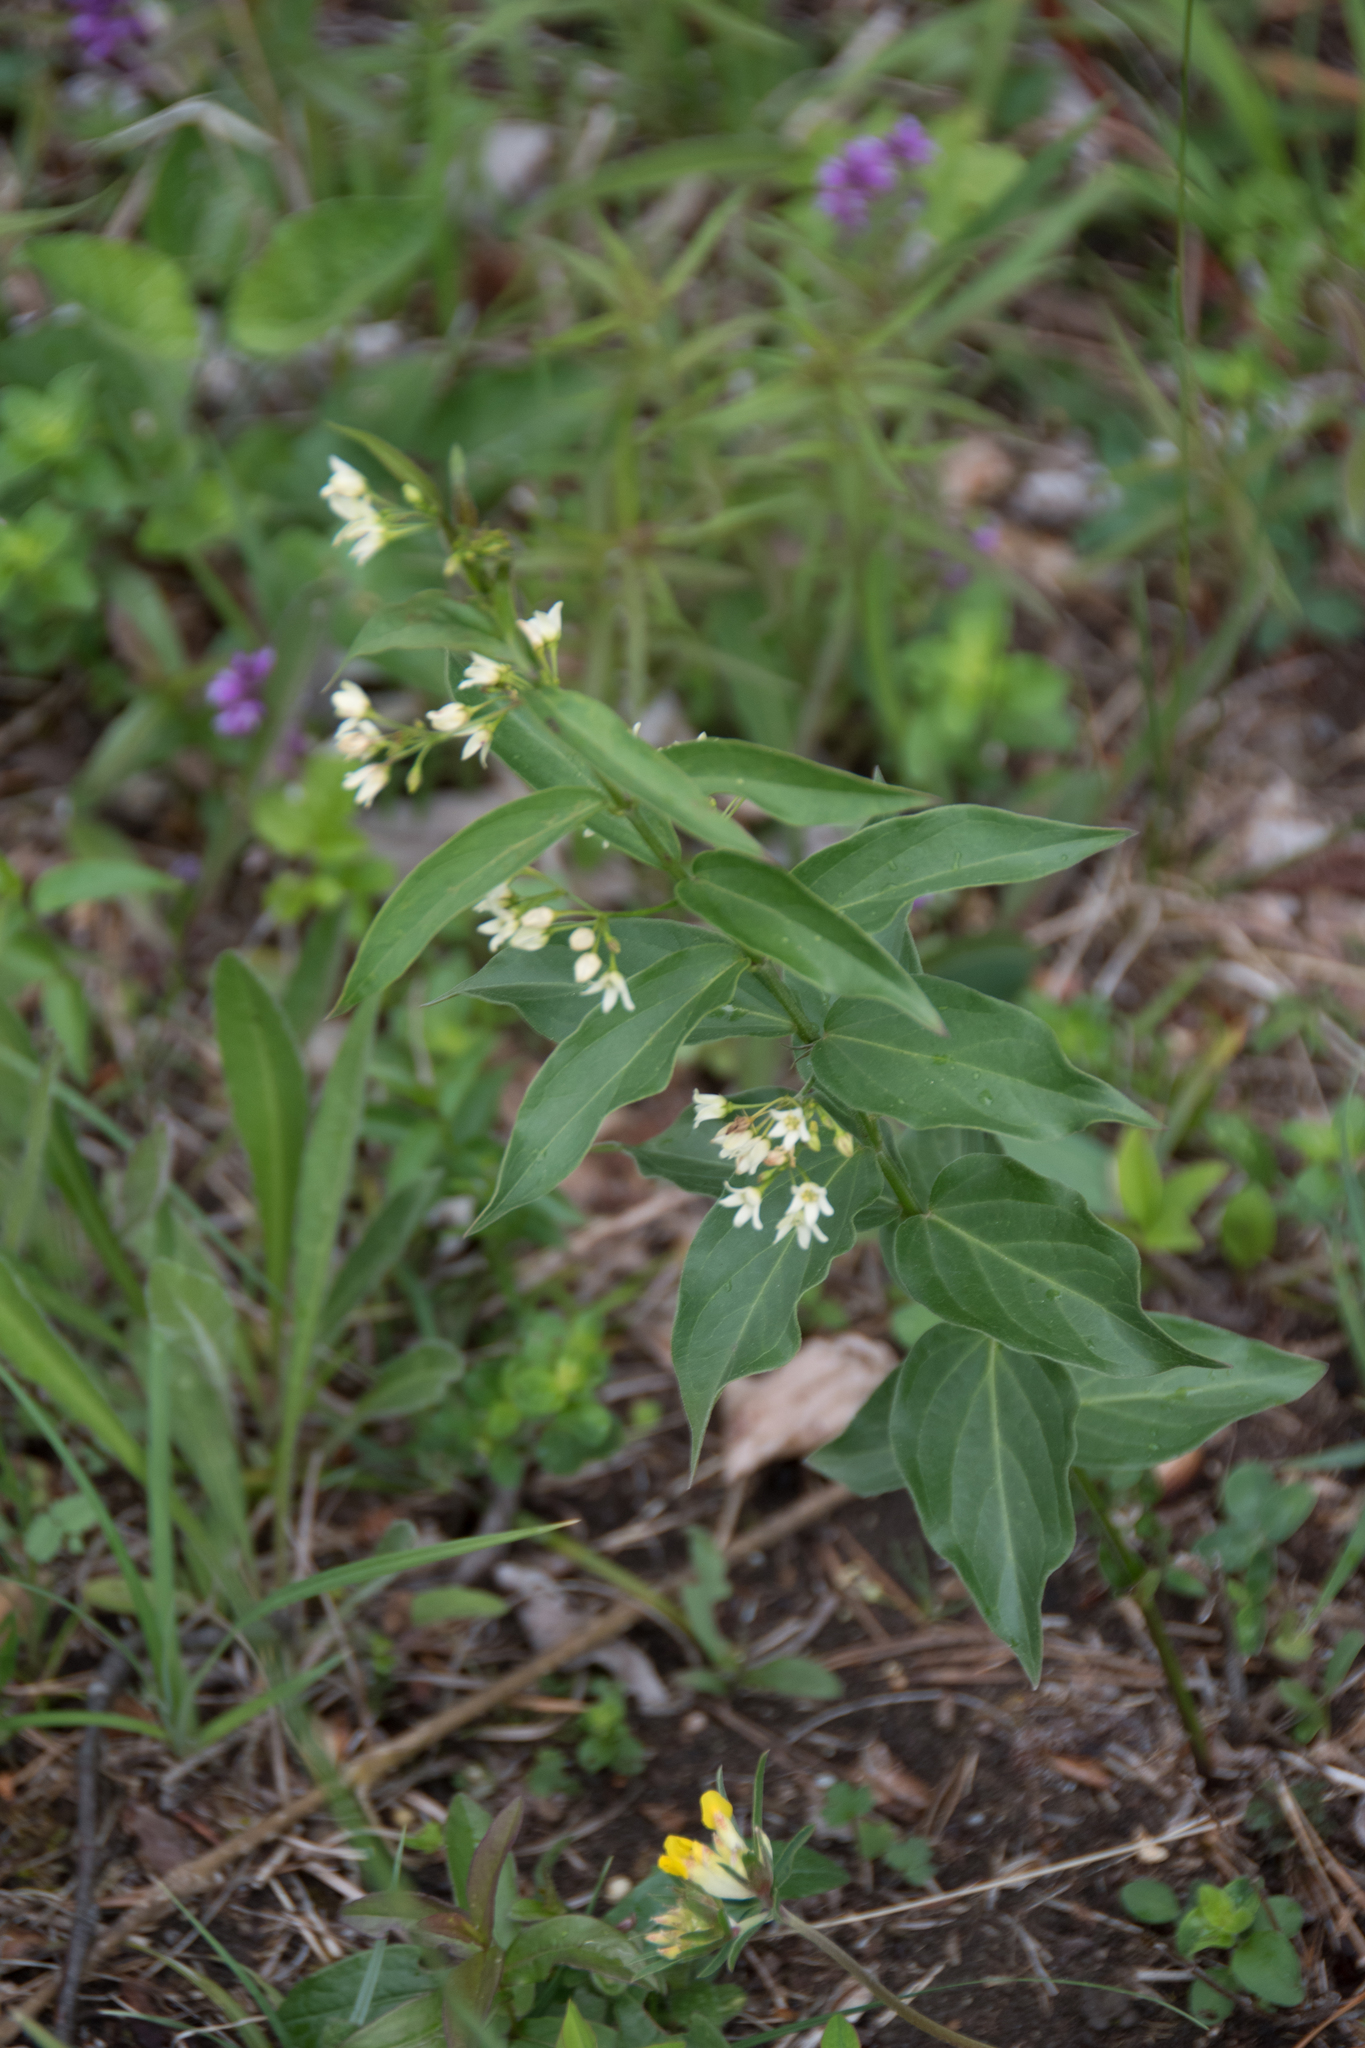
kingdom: Plantae
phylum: Tracheophyta
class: Magnoliopsida
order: Gentianales
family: Apocynaceae
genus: Vincetoxicum
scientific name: Vincetoxicum hirundinaria
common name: White swallowwort
